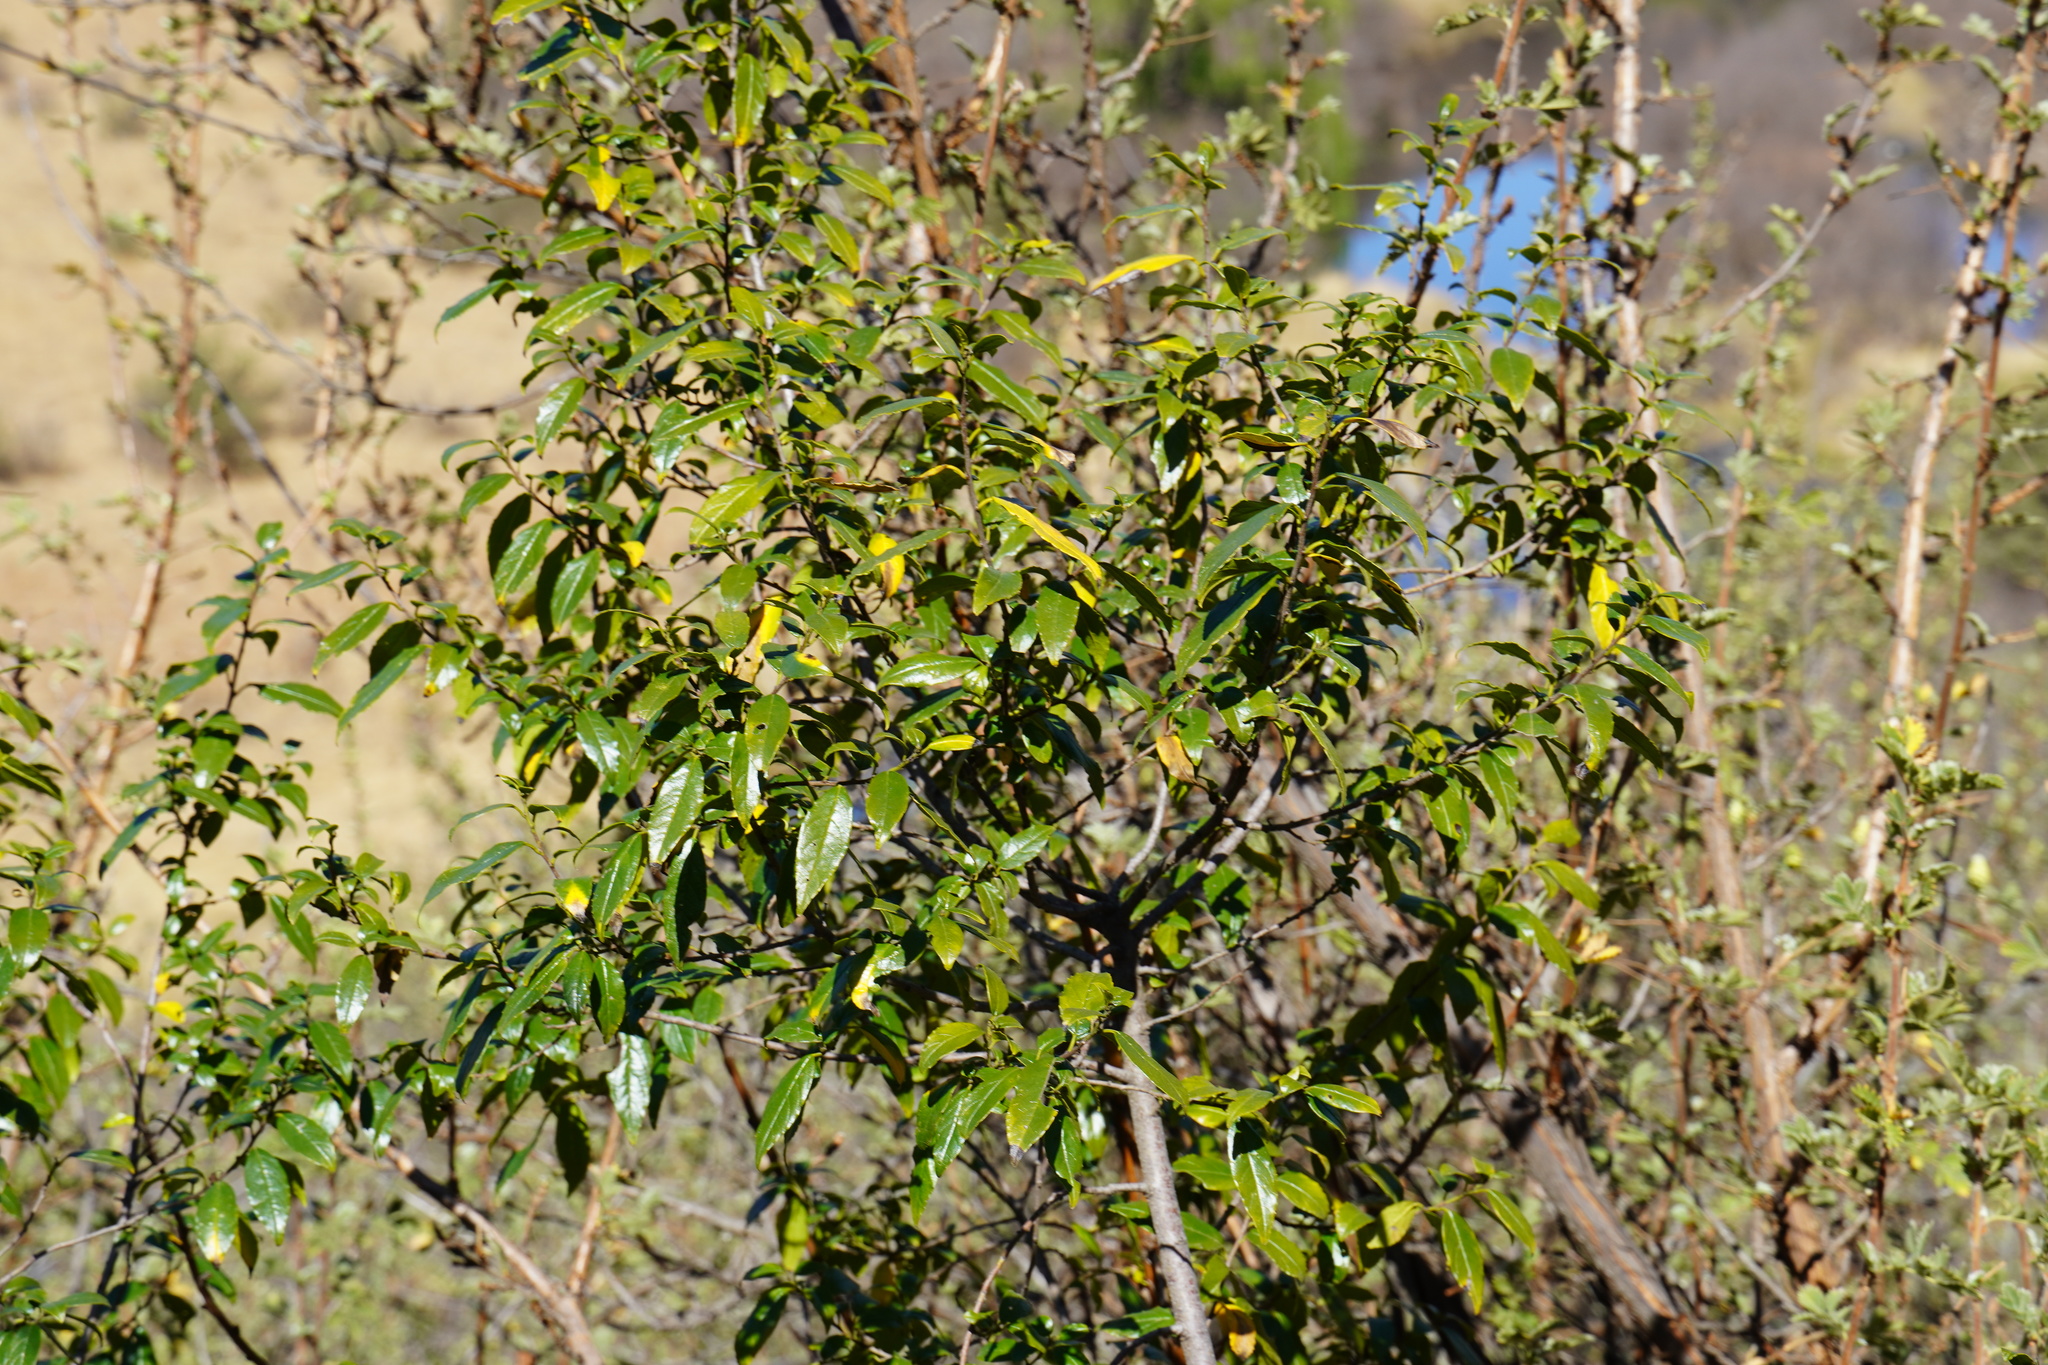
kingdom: Plantae
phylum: Tracheophyta
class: Magnoliopsida
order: Rosales
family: Rhamnaceae
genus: Rhamnus
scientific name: Rhamnus prinoides
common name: Dogwood
